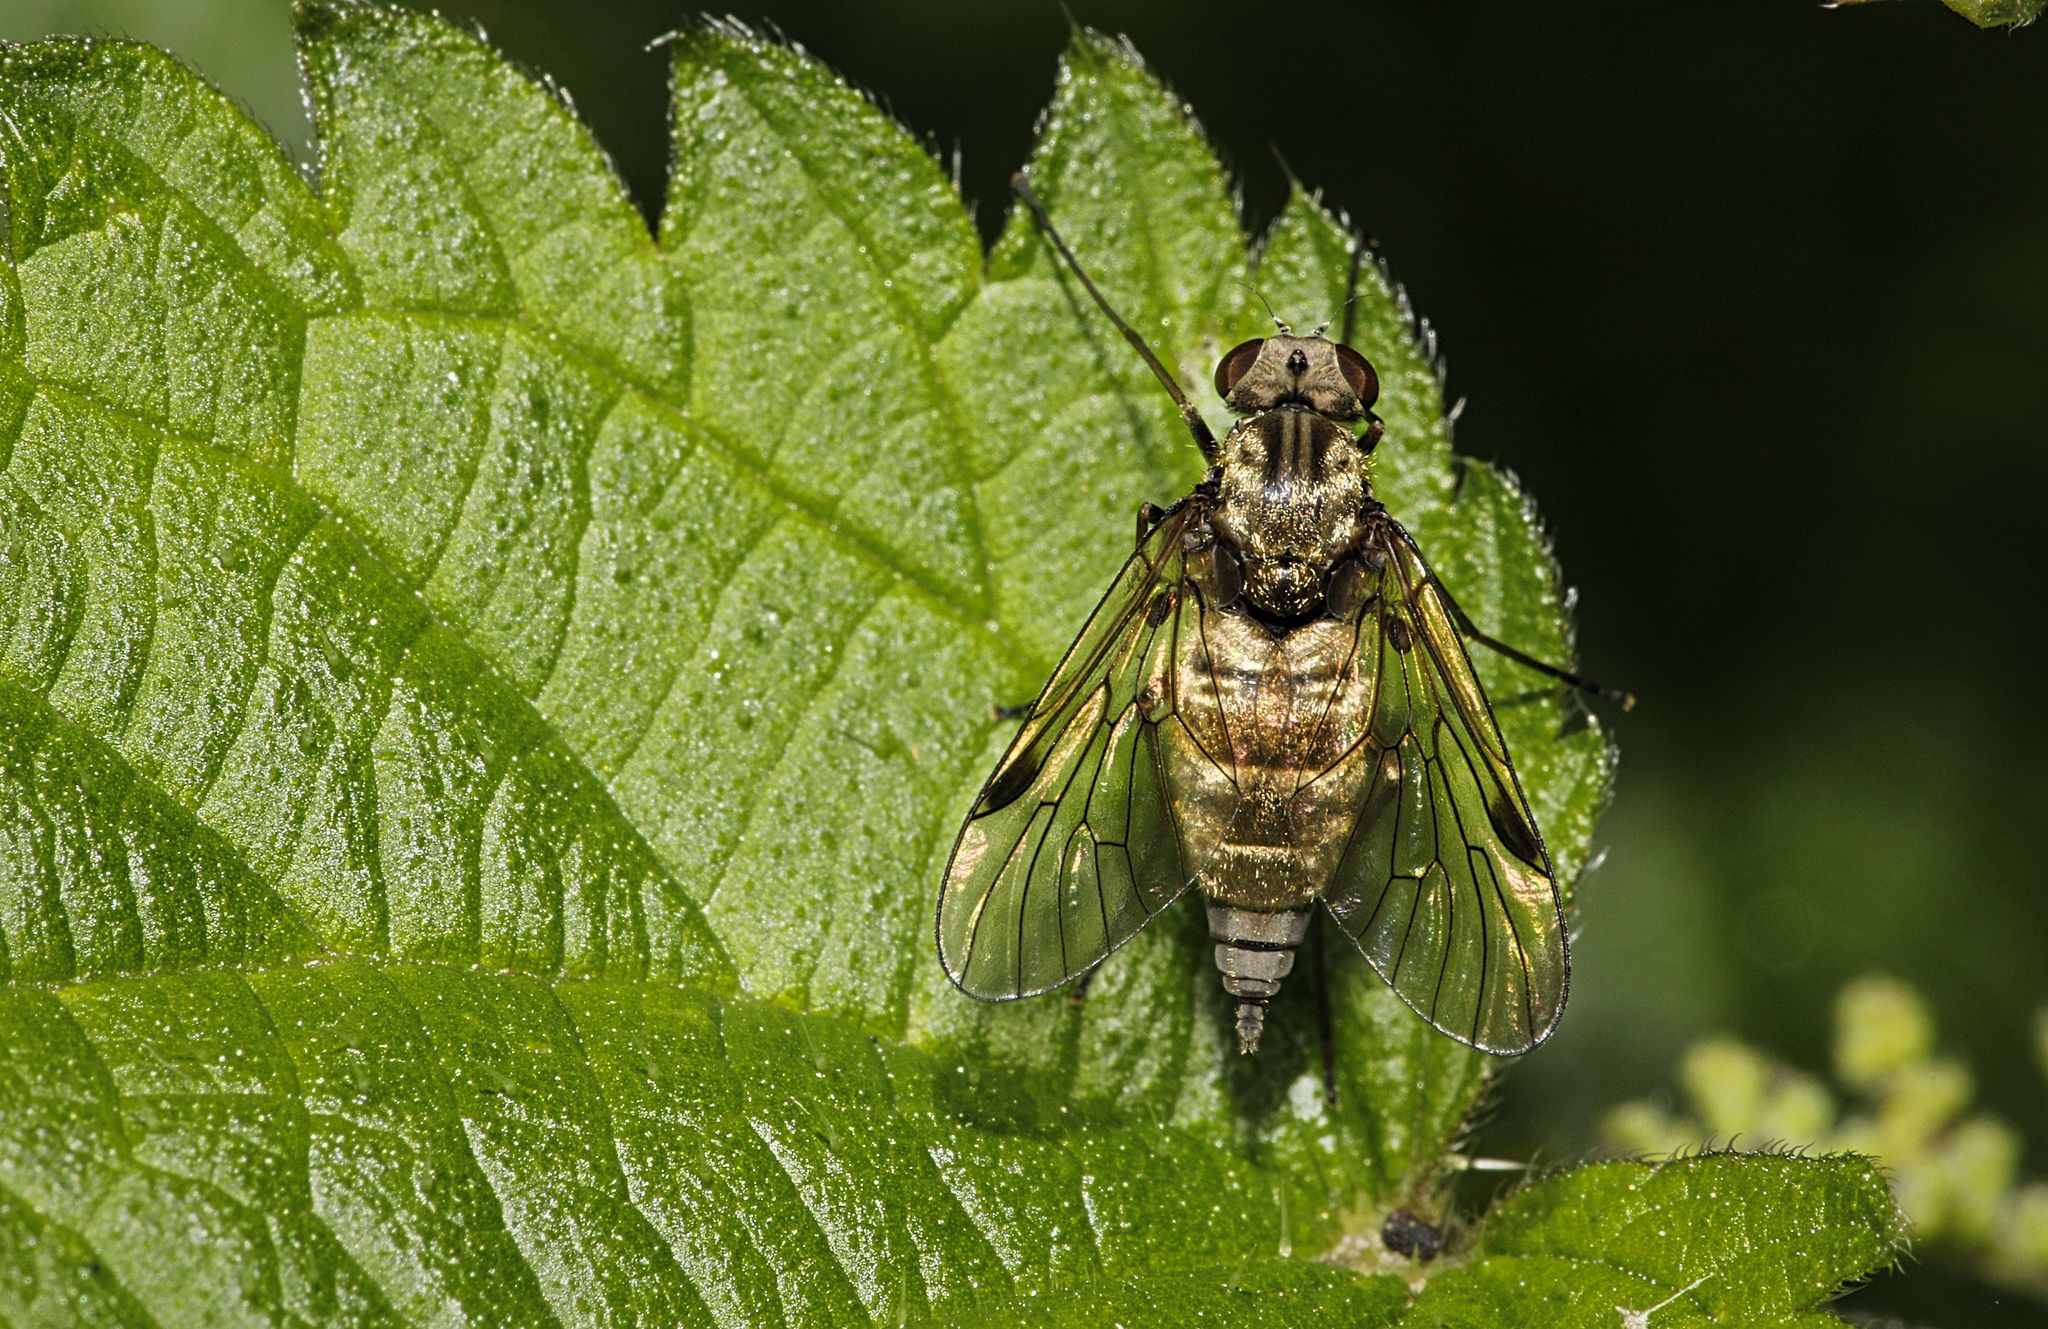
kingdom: Animalia
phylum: Arthropoda
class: Insecta
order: Diptera
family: Rhagionidae
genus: Chrysopilus
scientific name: Chrysopilus cristatus
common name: Black snipefly
